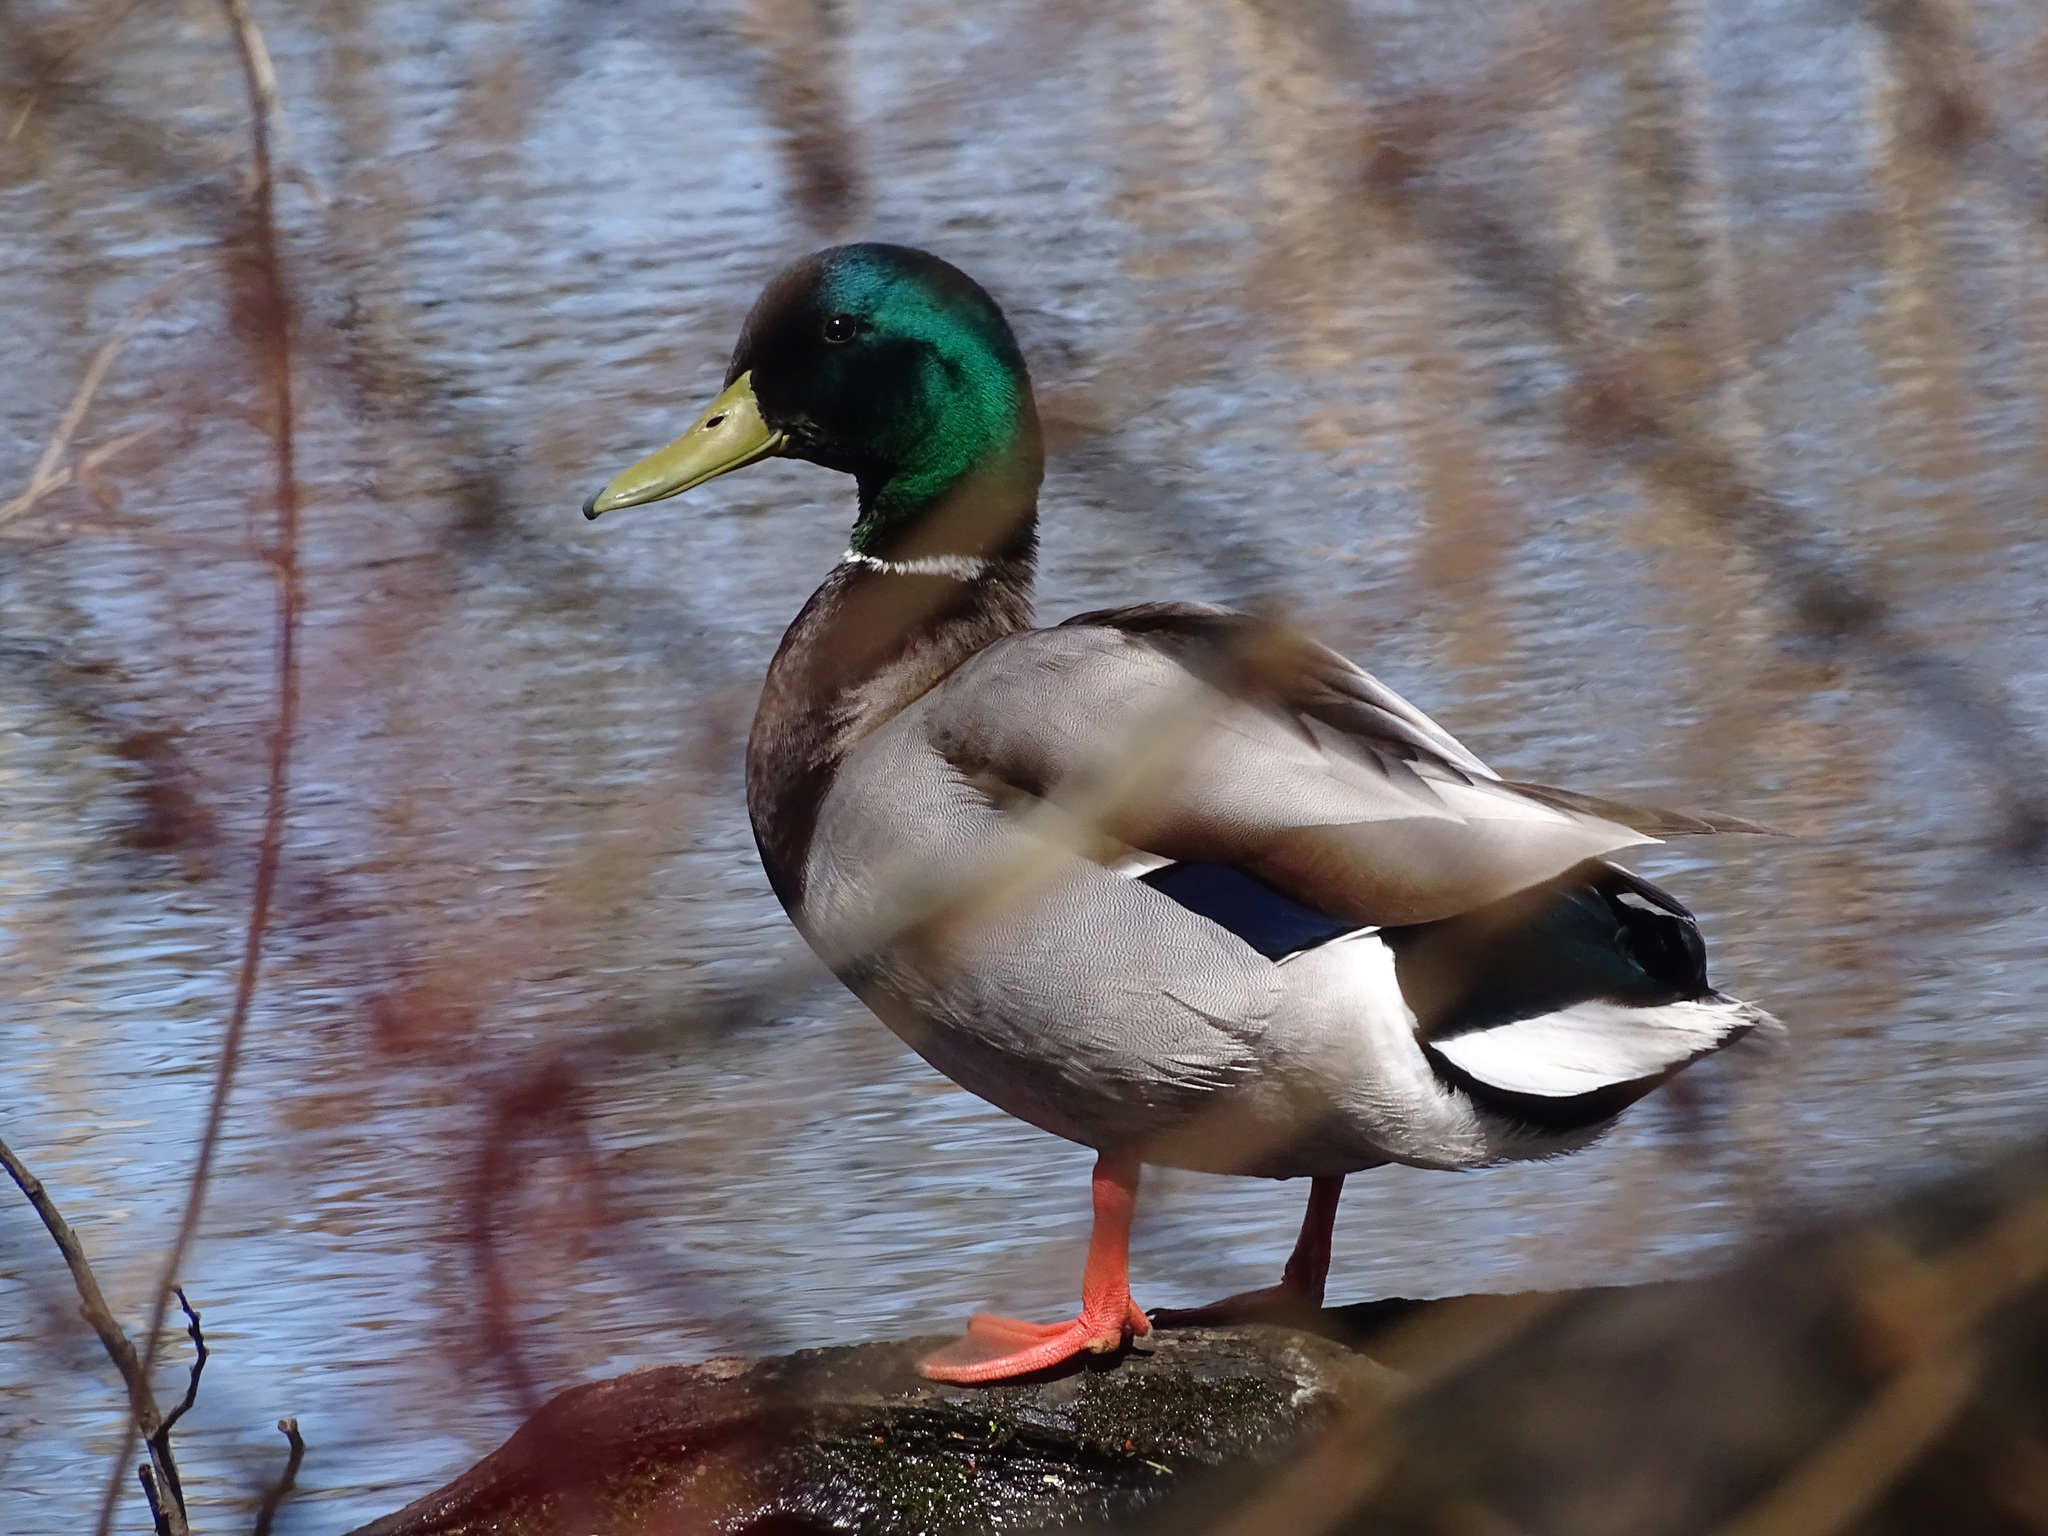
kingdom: Animalia
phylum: Chordata
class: Aves
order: Anseriformes
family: Anatidae
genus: Anas
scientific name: Anas platyrhynchos
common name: Mallard
